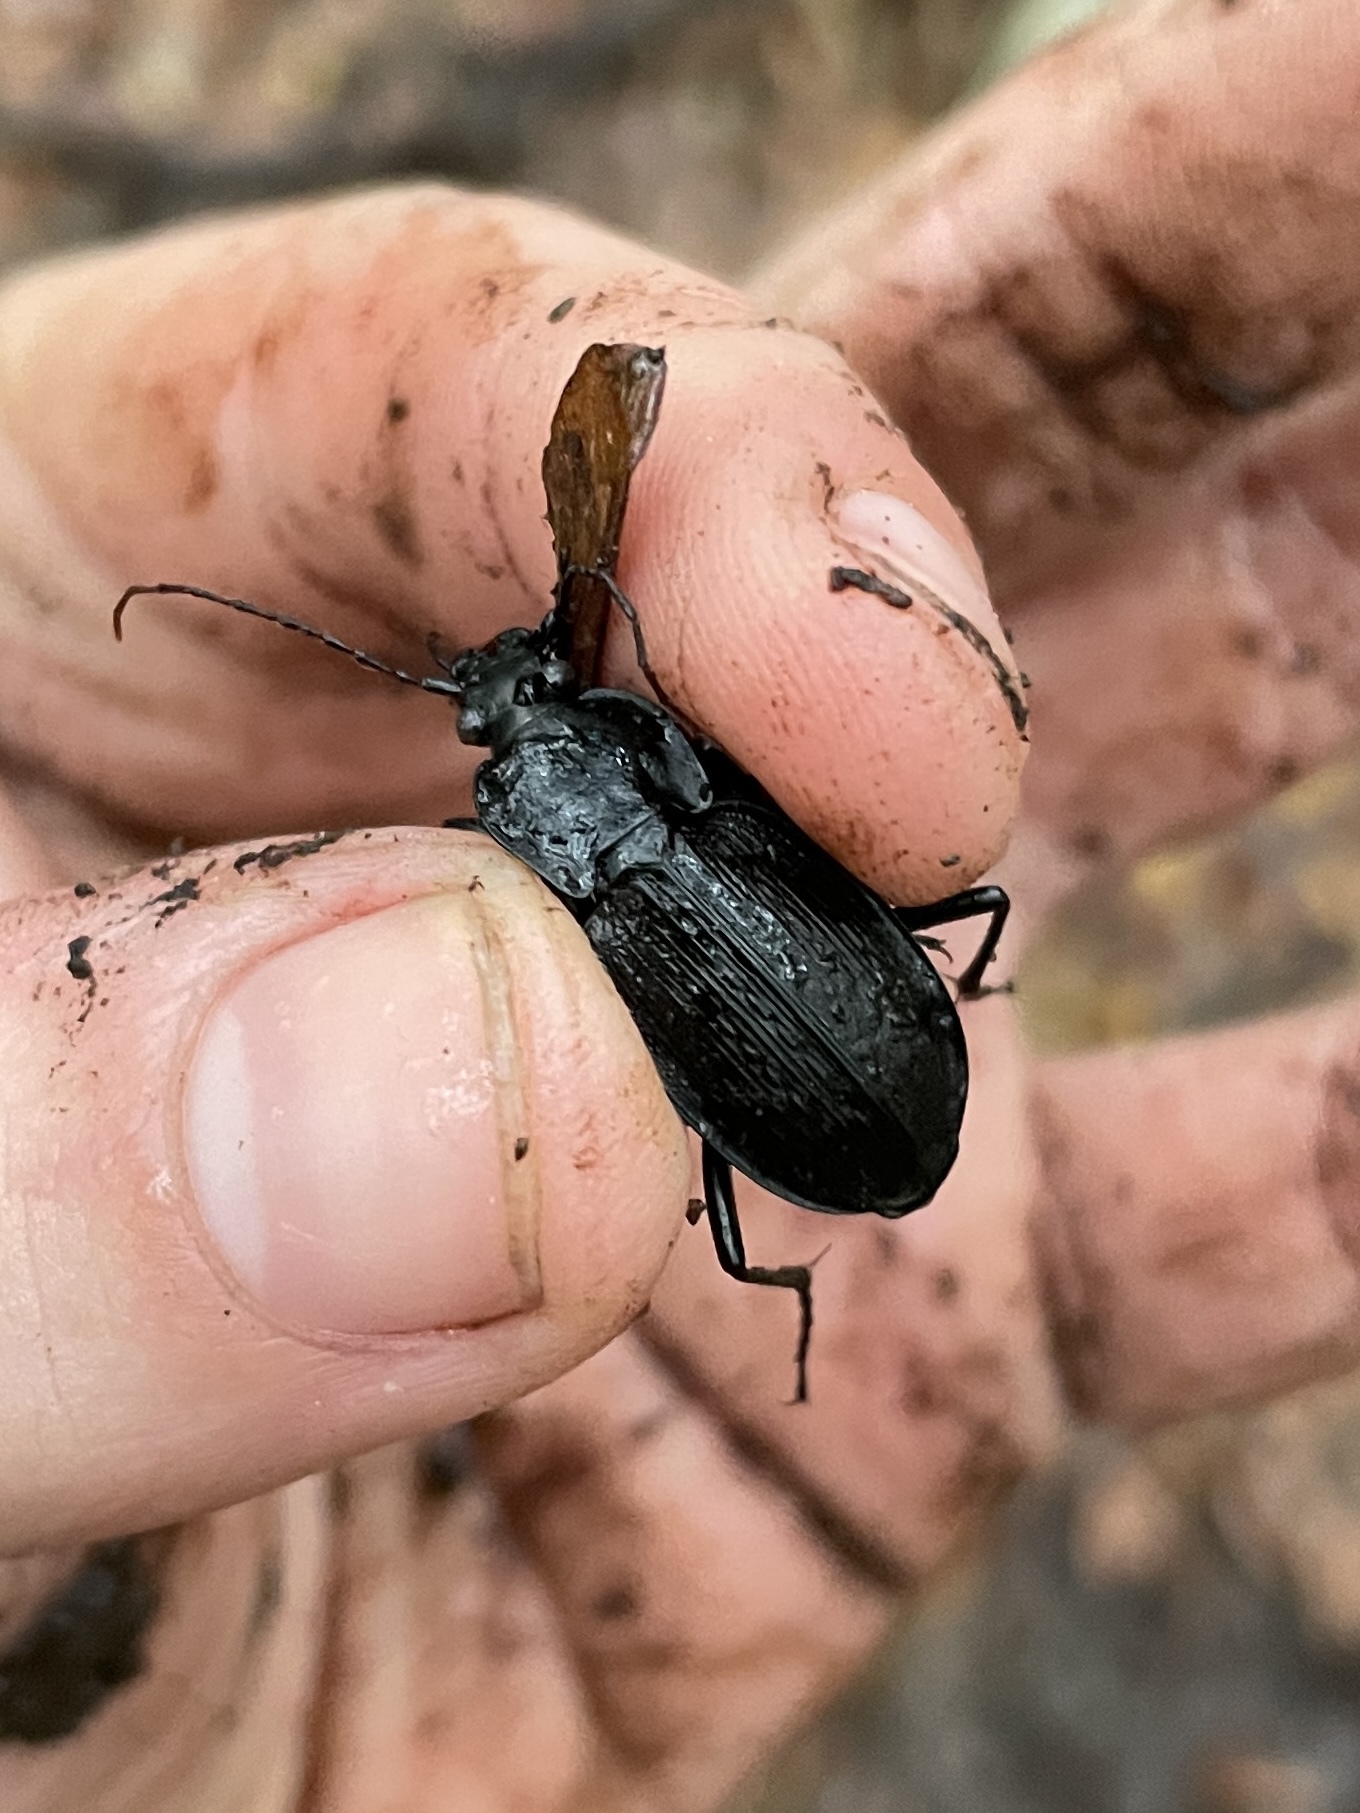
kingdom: Animalia
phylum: Arthropoda
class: Insecta
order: Coleoptera
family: Carabidae
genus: Carabus
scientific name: Carabus vinctus
